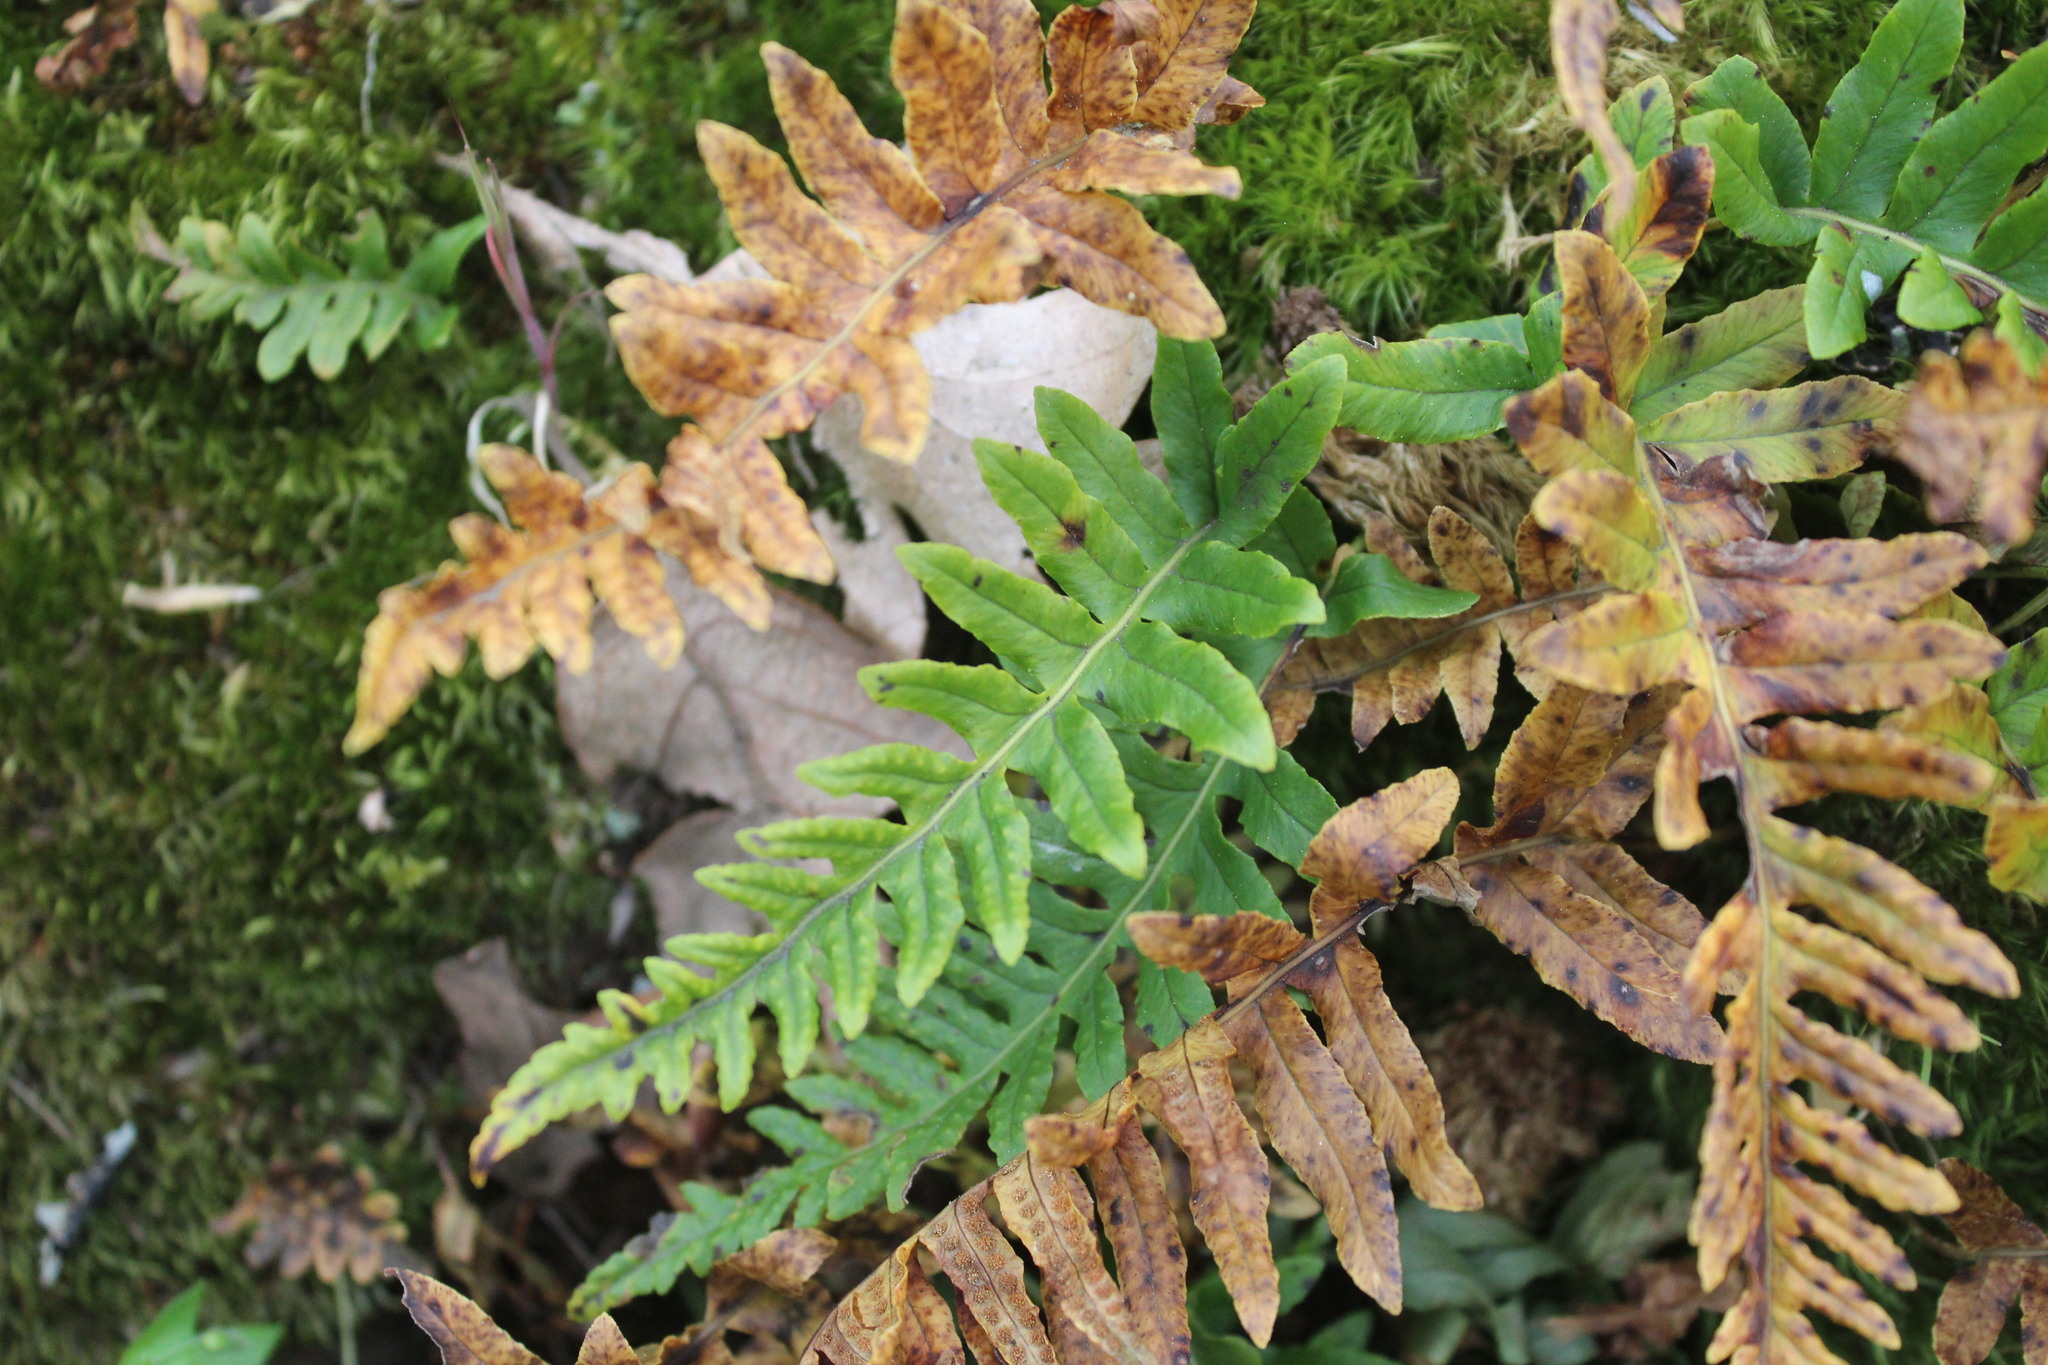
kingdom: Plantae
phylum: Tracheophyta
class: Polypodiopsida
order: Polypodiales
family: Polypodiaceae
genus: Polypodium
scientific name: Polypodium glycyrrhiza
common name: Licorice fern
